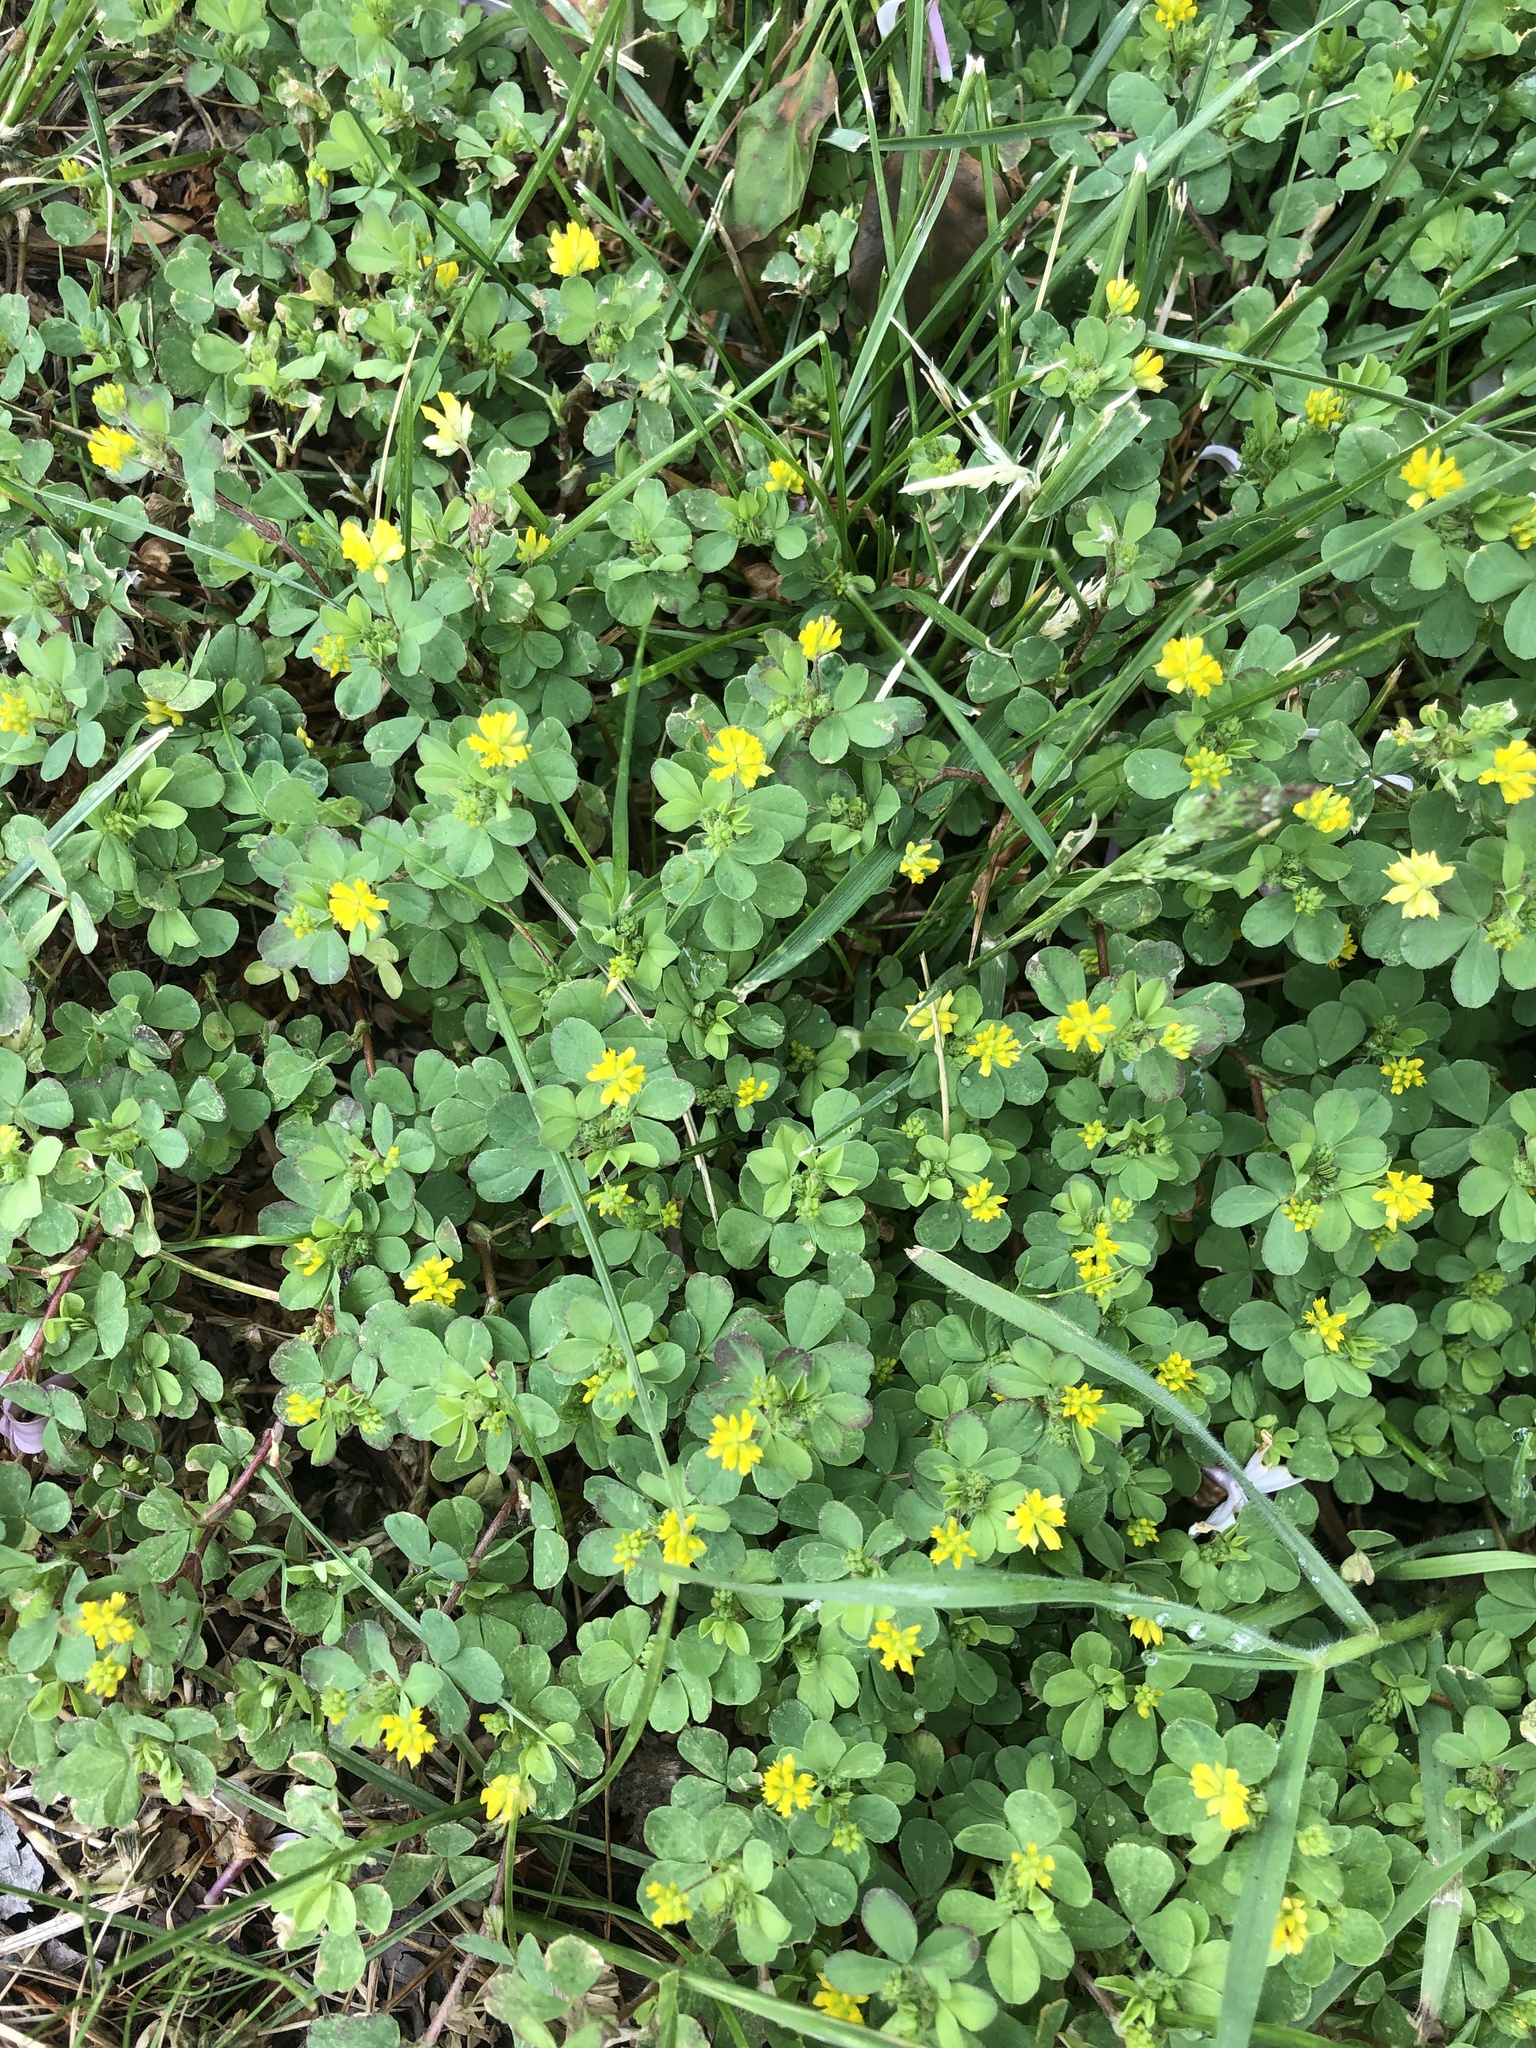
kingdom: Plantae
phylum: Tracheophyta
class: Magnoliopsida
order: Fabales
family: Fabaceae
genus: Trifolium
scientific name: Trifolium dubium
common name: Suckling clover
